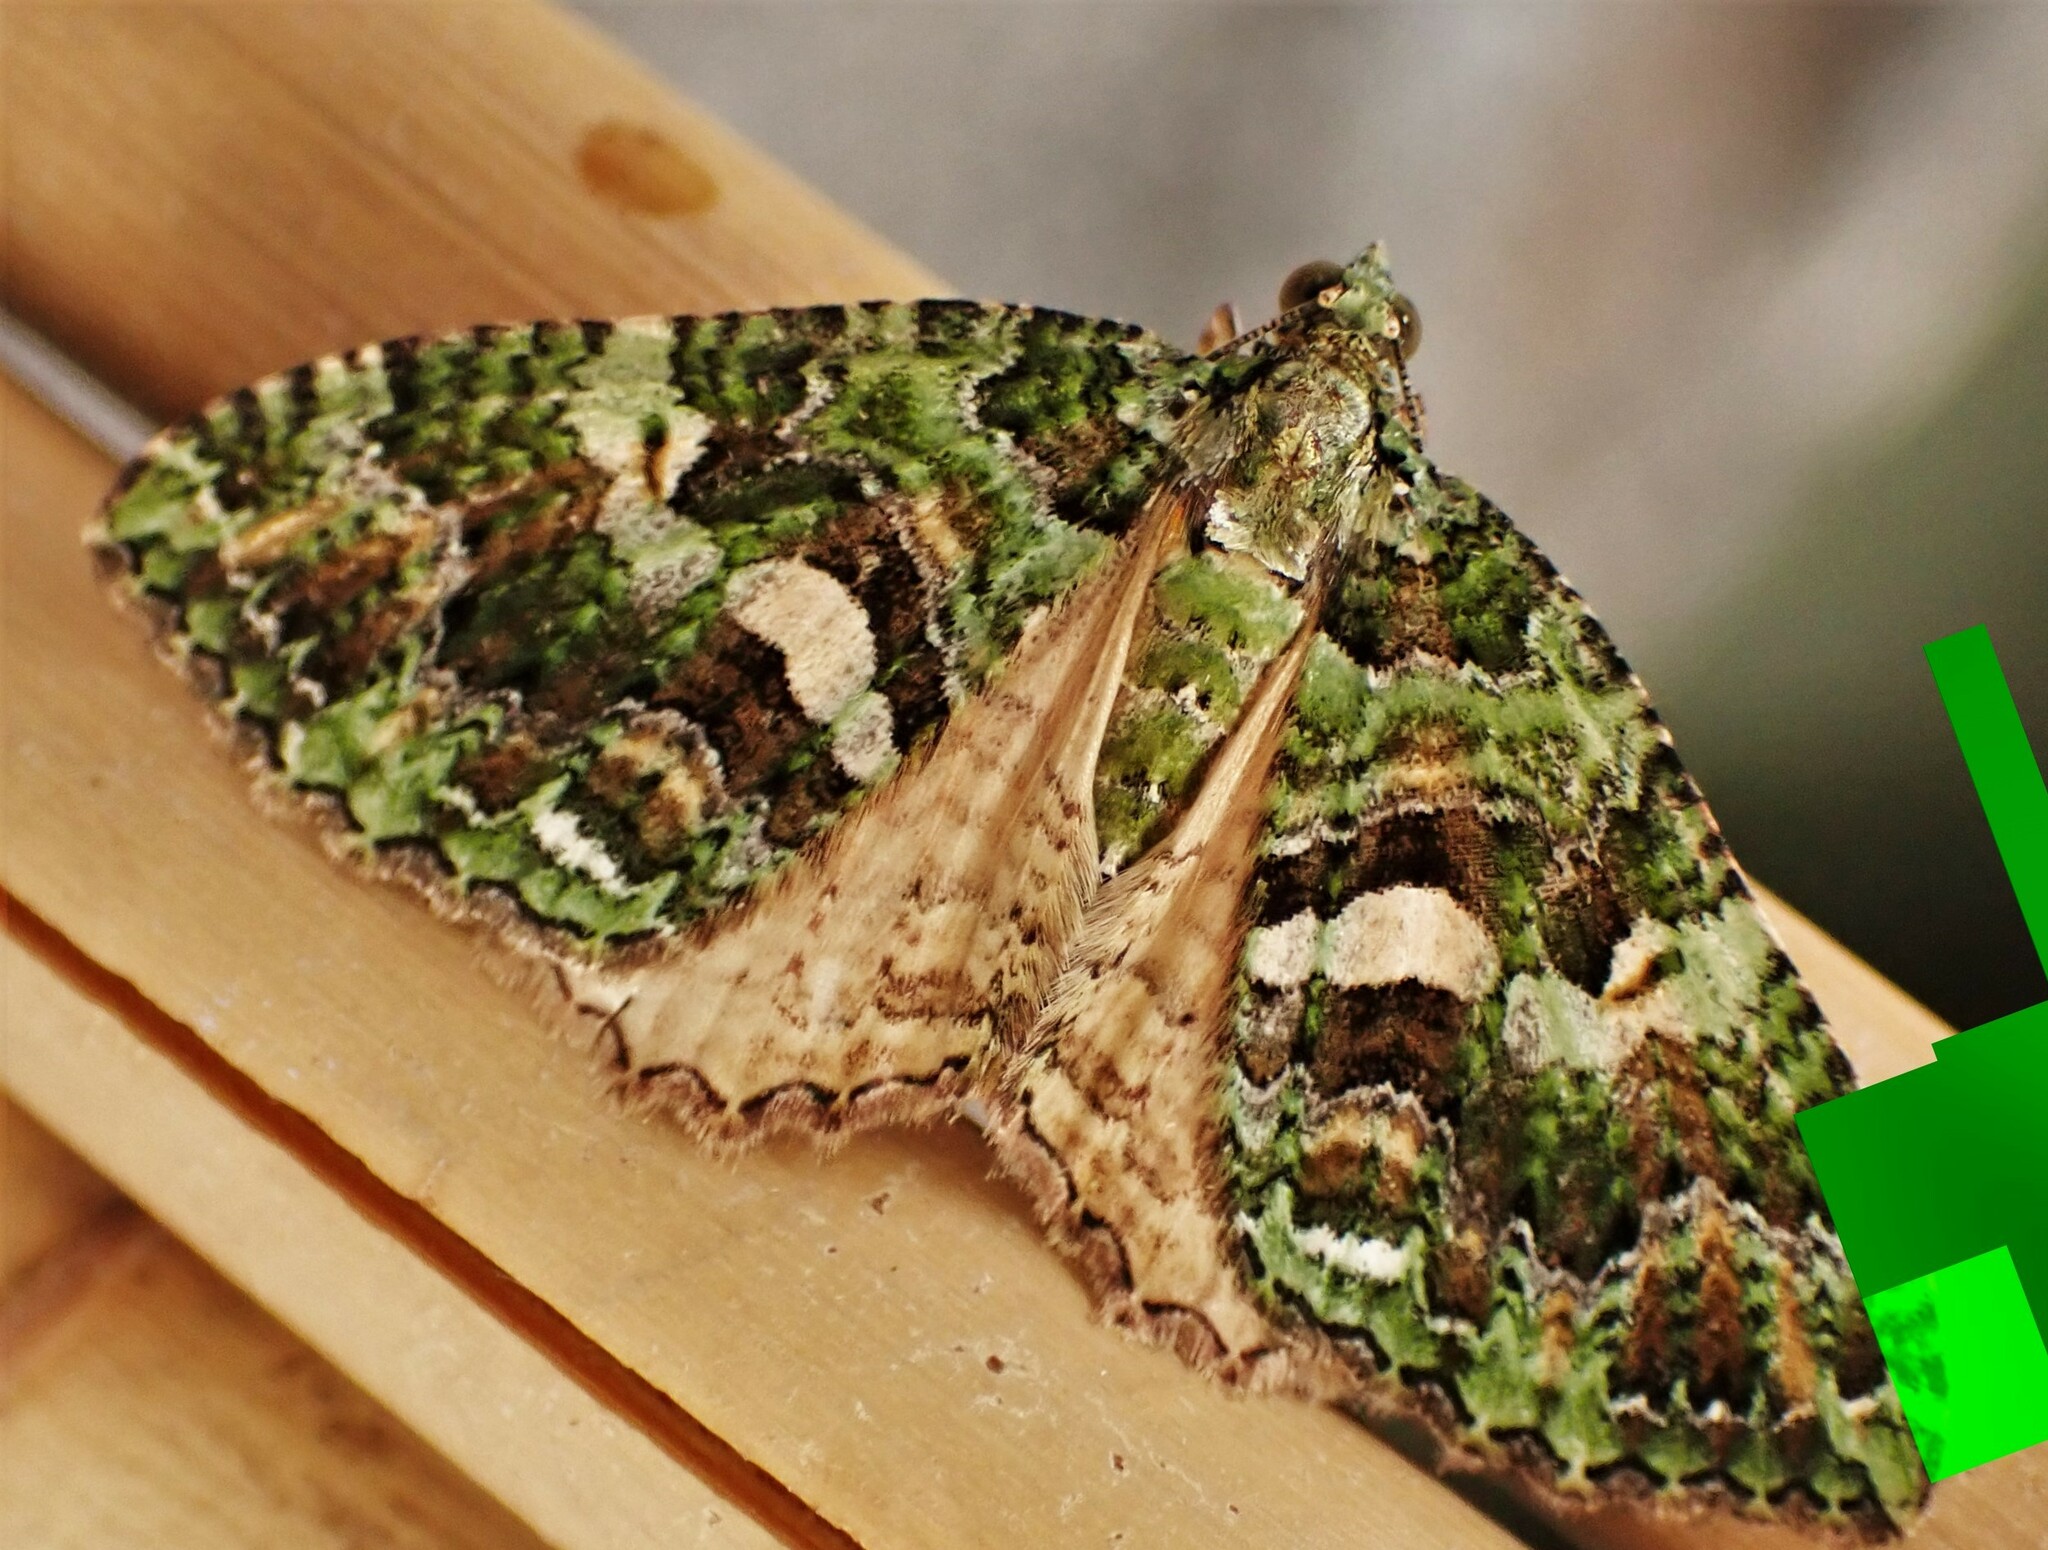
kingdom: Animalia
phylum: Arthropoda
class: Insecta
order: Lepidoptera
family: Geometridae
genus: Austrocidaria
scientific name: Austrocidaria similata
